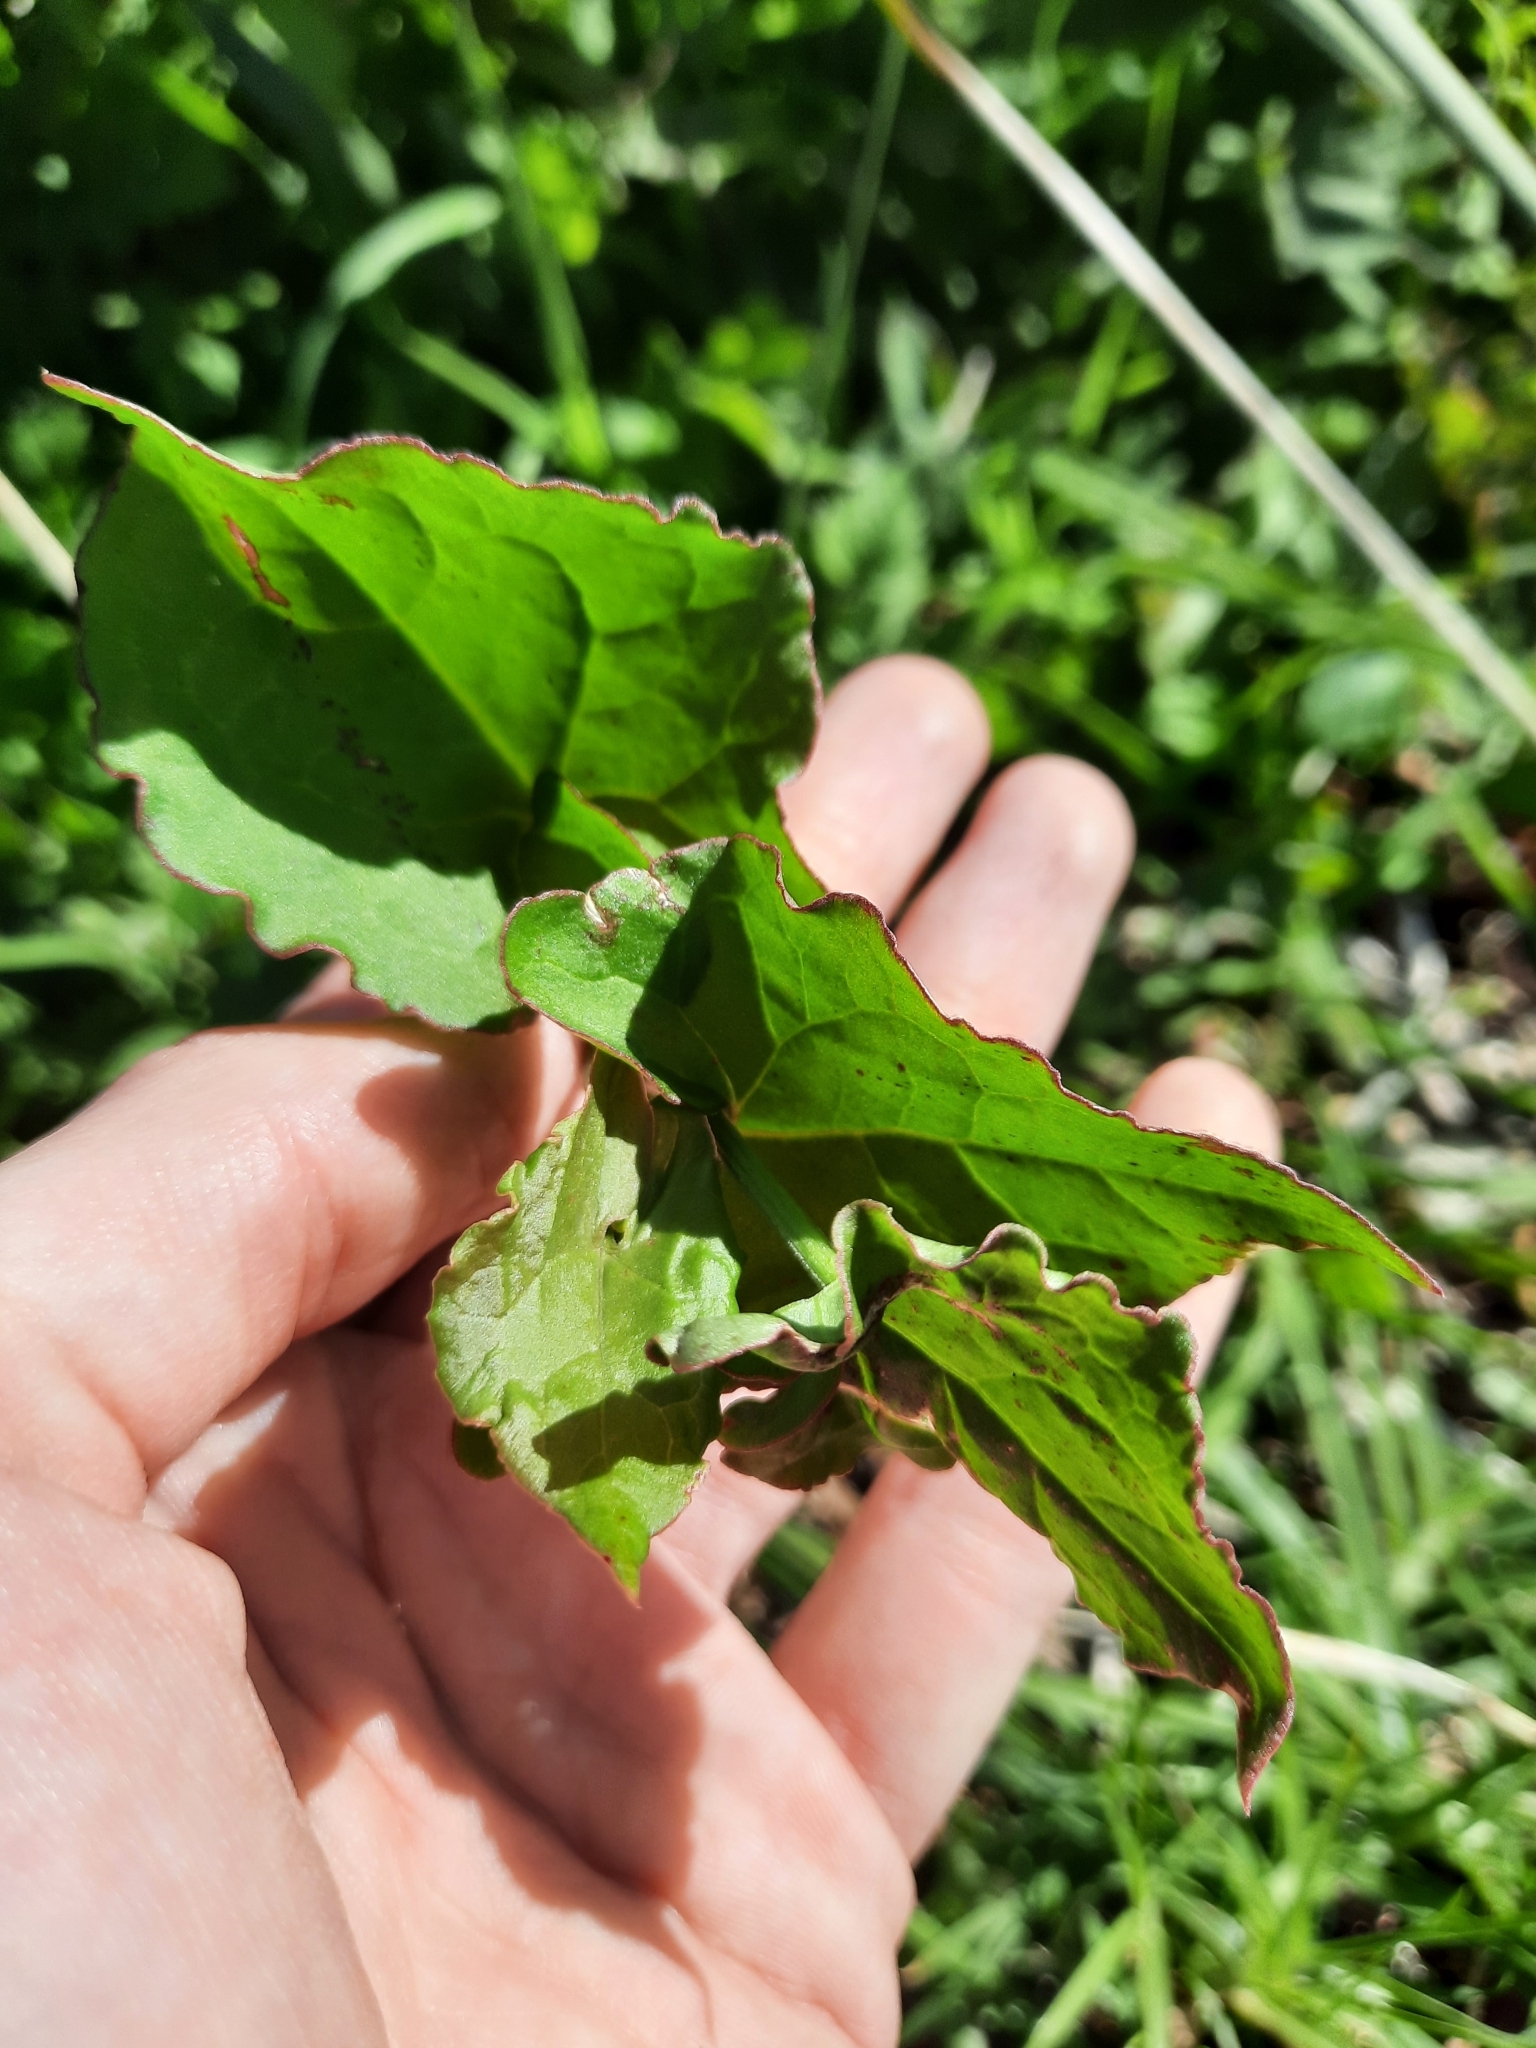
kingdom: Plantae
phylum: Tracheophyta
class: Magnoliopsida
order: Caryophyllales
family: Polygonaceae
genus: Rumex
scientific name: Rumex sagittatus
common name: Climbing dock
